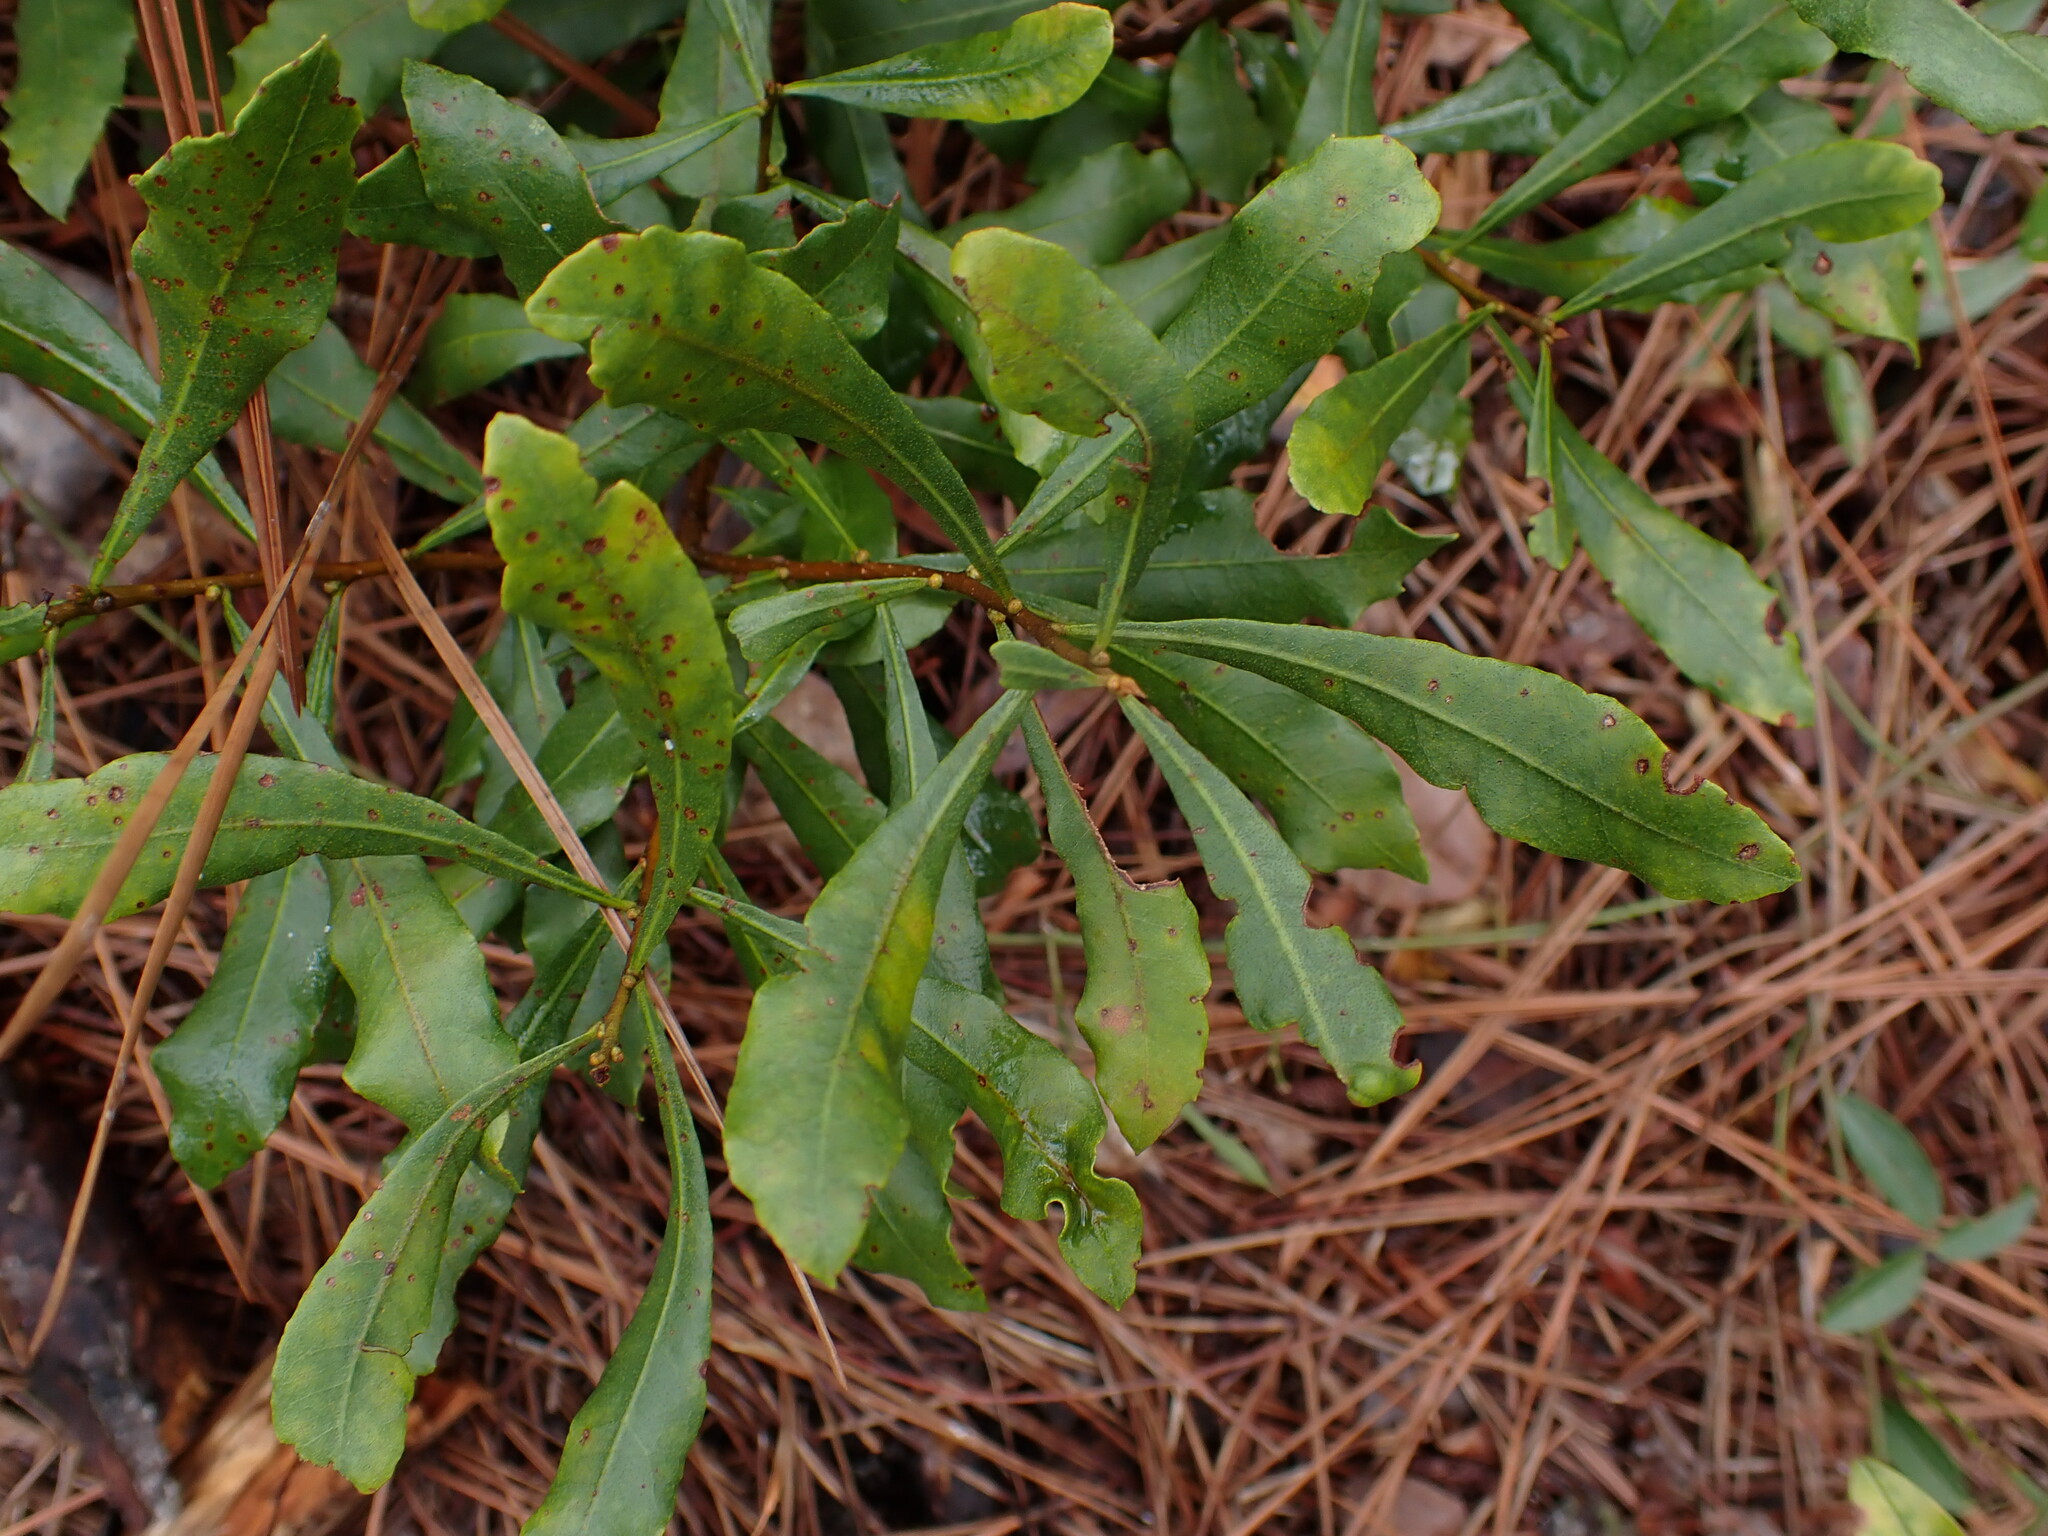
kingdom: Plantae
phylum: Tracheophyta
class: Magnoliopsida
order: Fagales
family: Myricaceae
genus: Morella
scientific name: Morella cerifera
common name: Wax myrtle
